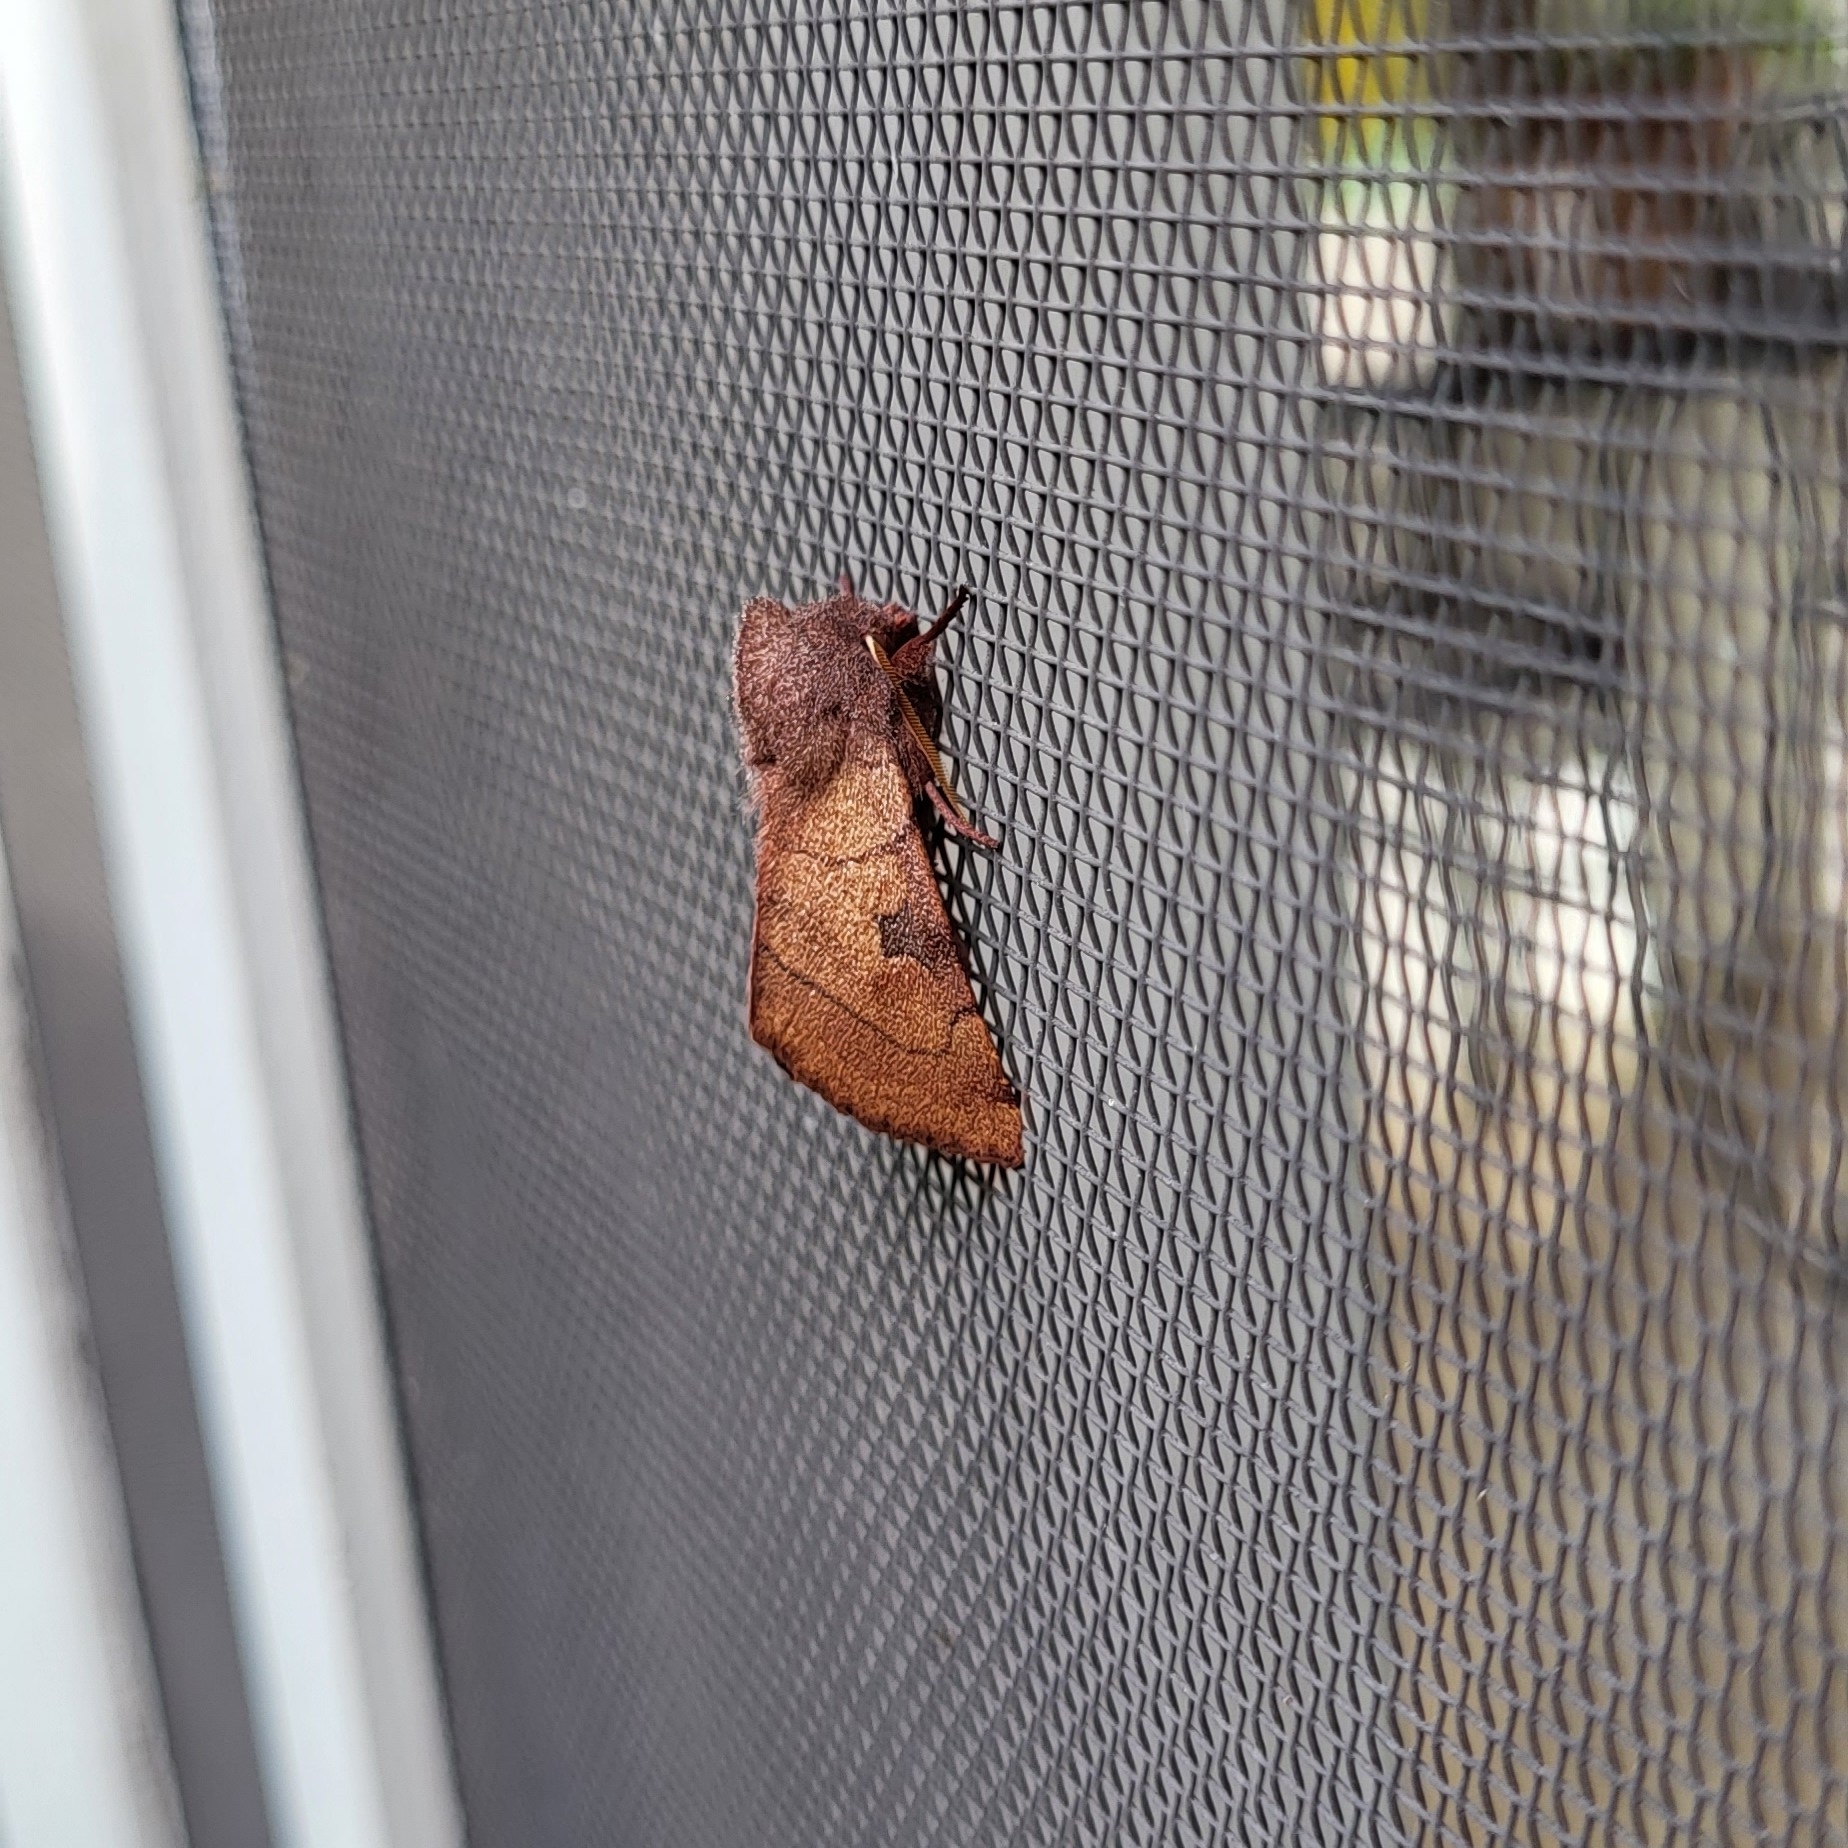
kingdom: Animalia
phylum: Arthropoda
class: Insecta
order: Lepidoptera
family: Noctuidae
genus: Choephora
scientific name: Choephora fungorum
